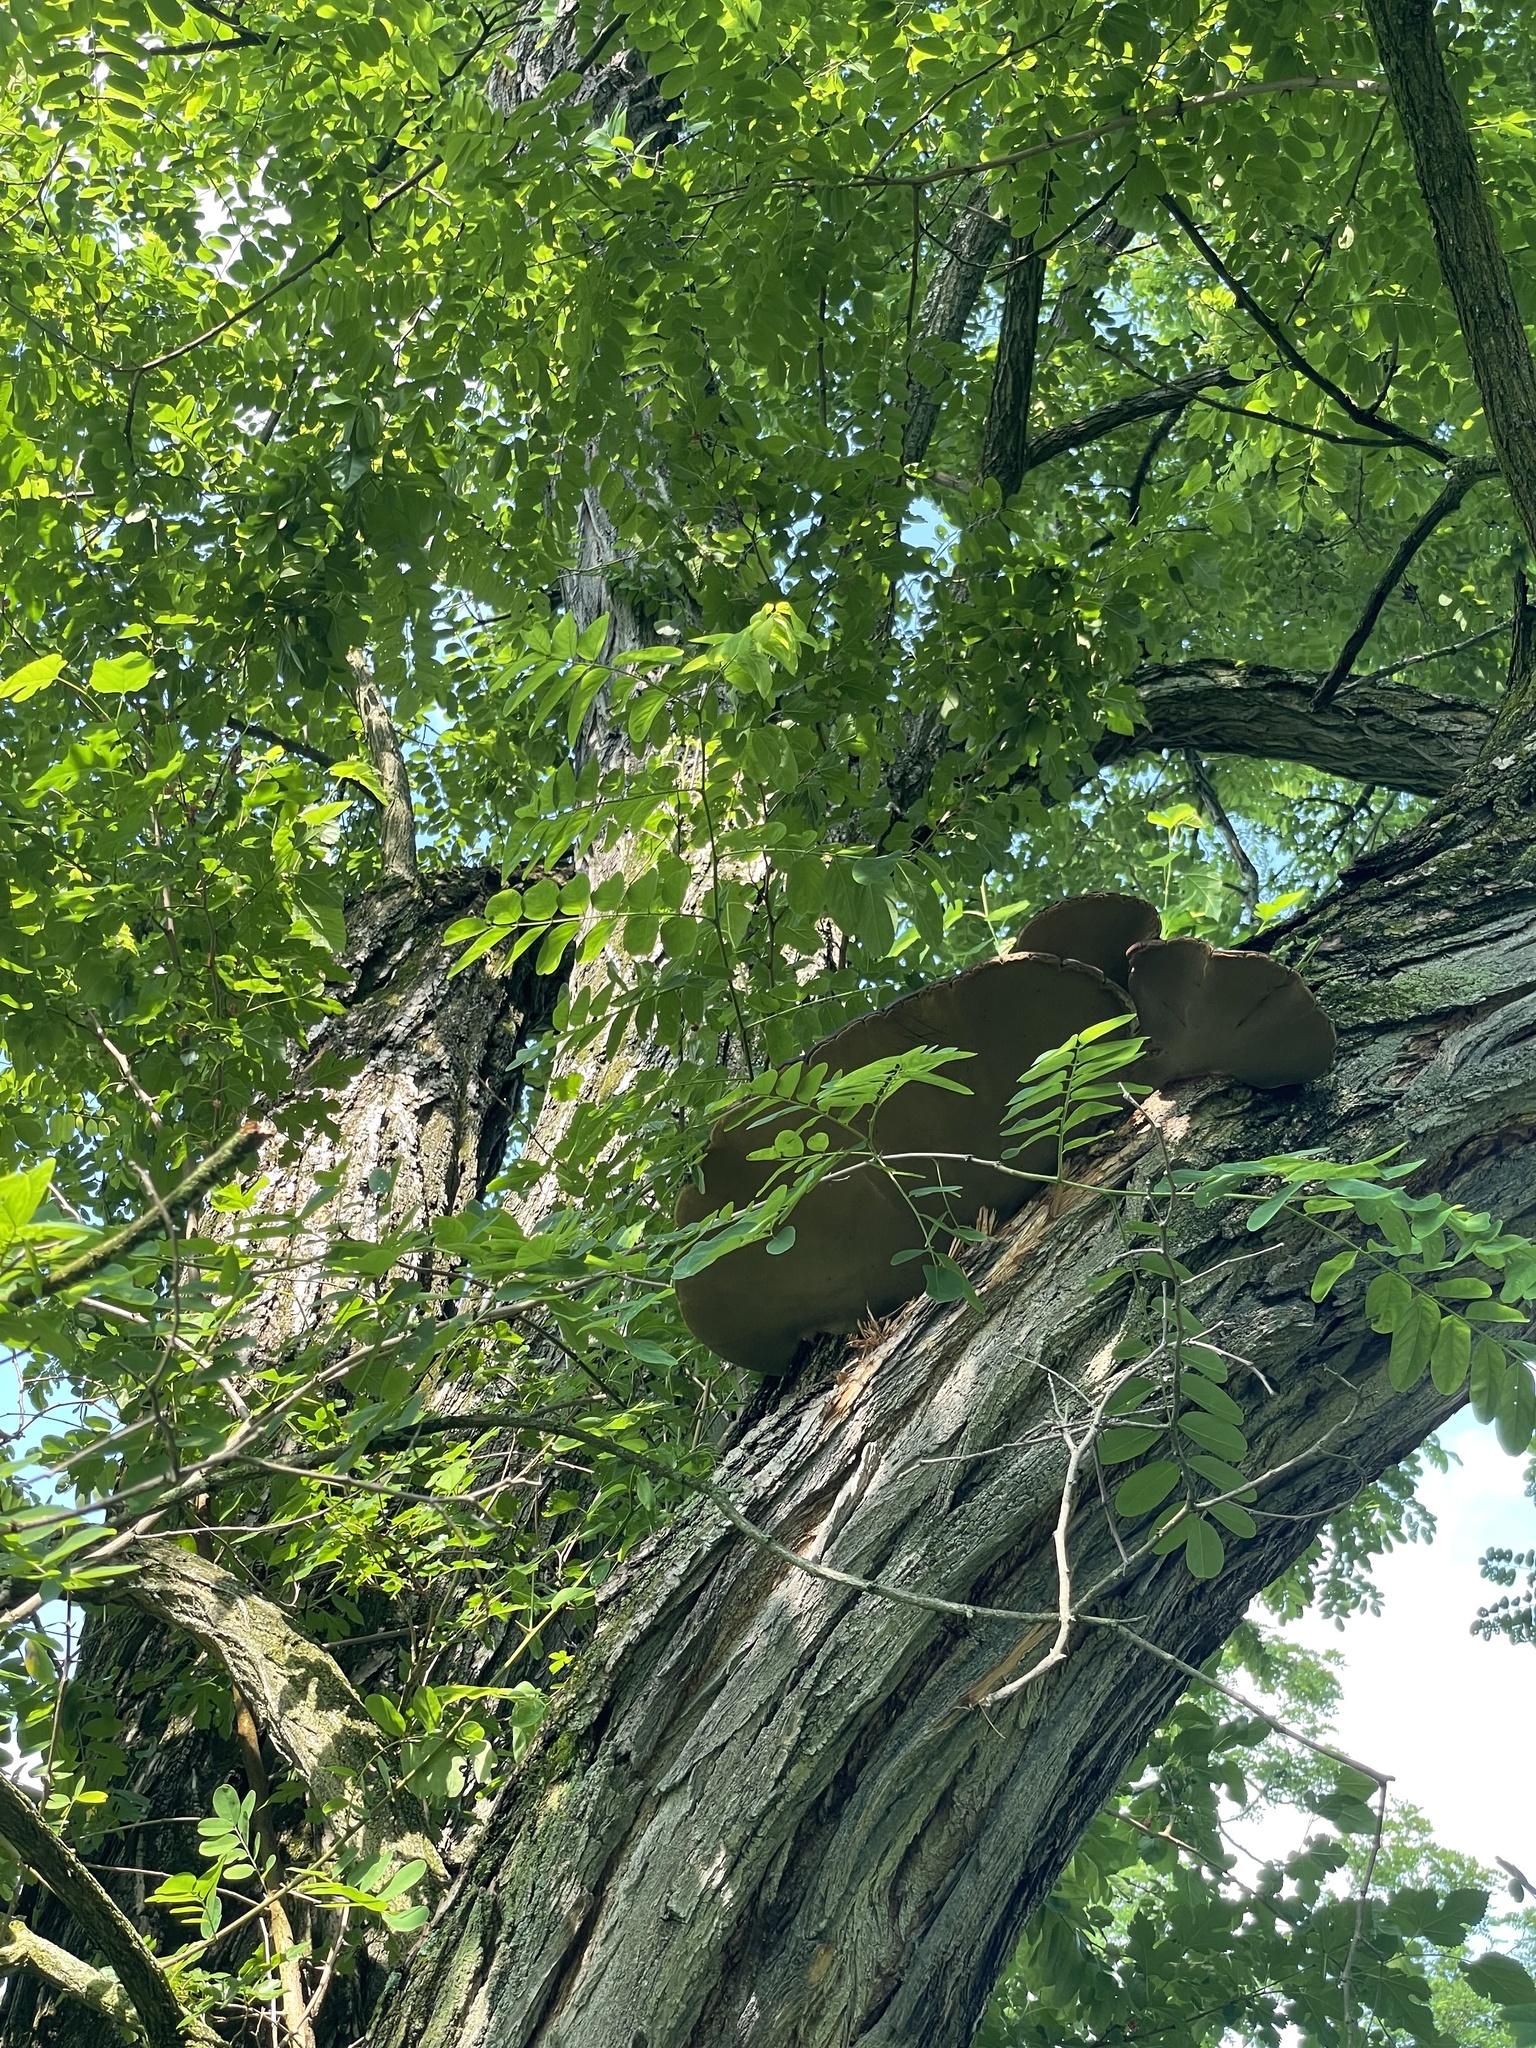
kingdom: Fungi
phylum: Basidiomycota
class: Agaricomycetes
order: Hymenochaetales
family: Hymenochaetaceae
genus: Phellinus
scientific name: Phellinus robiniae
